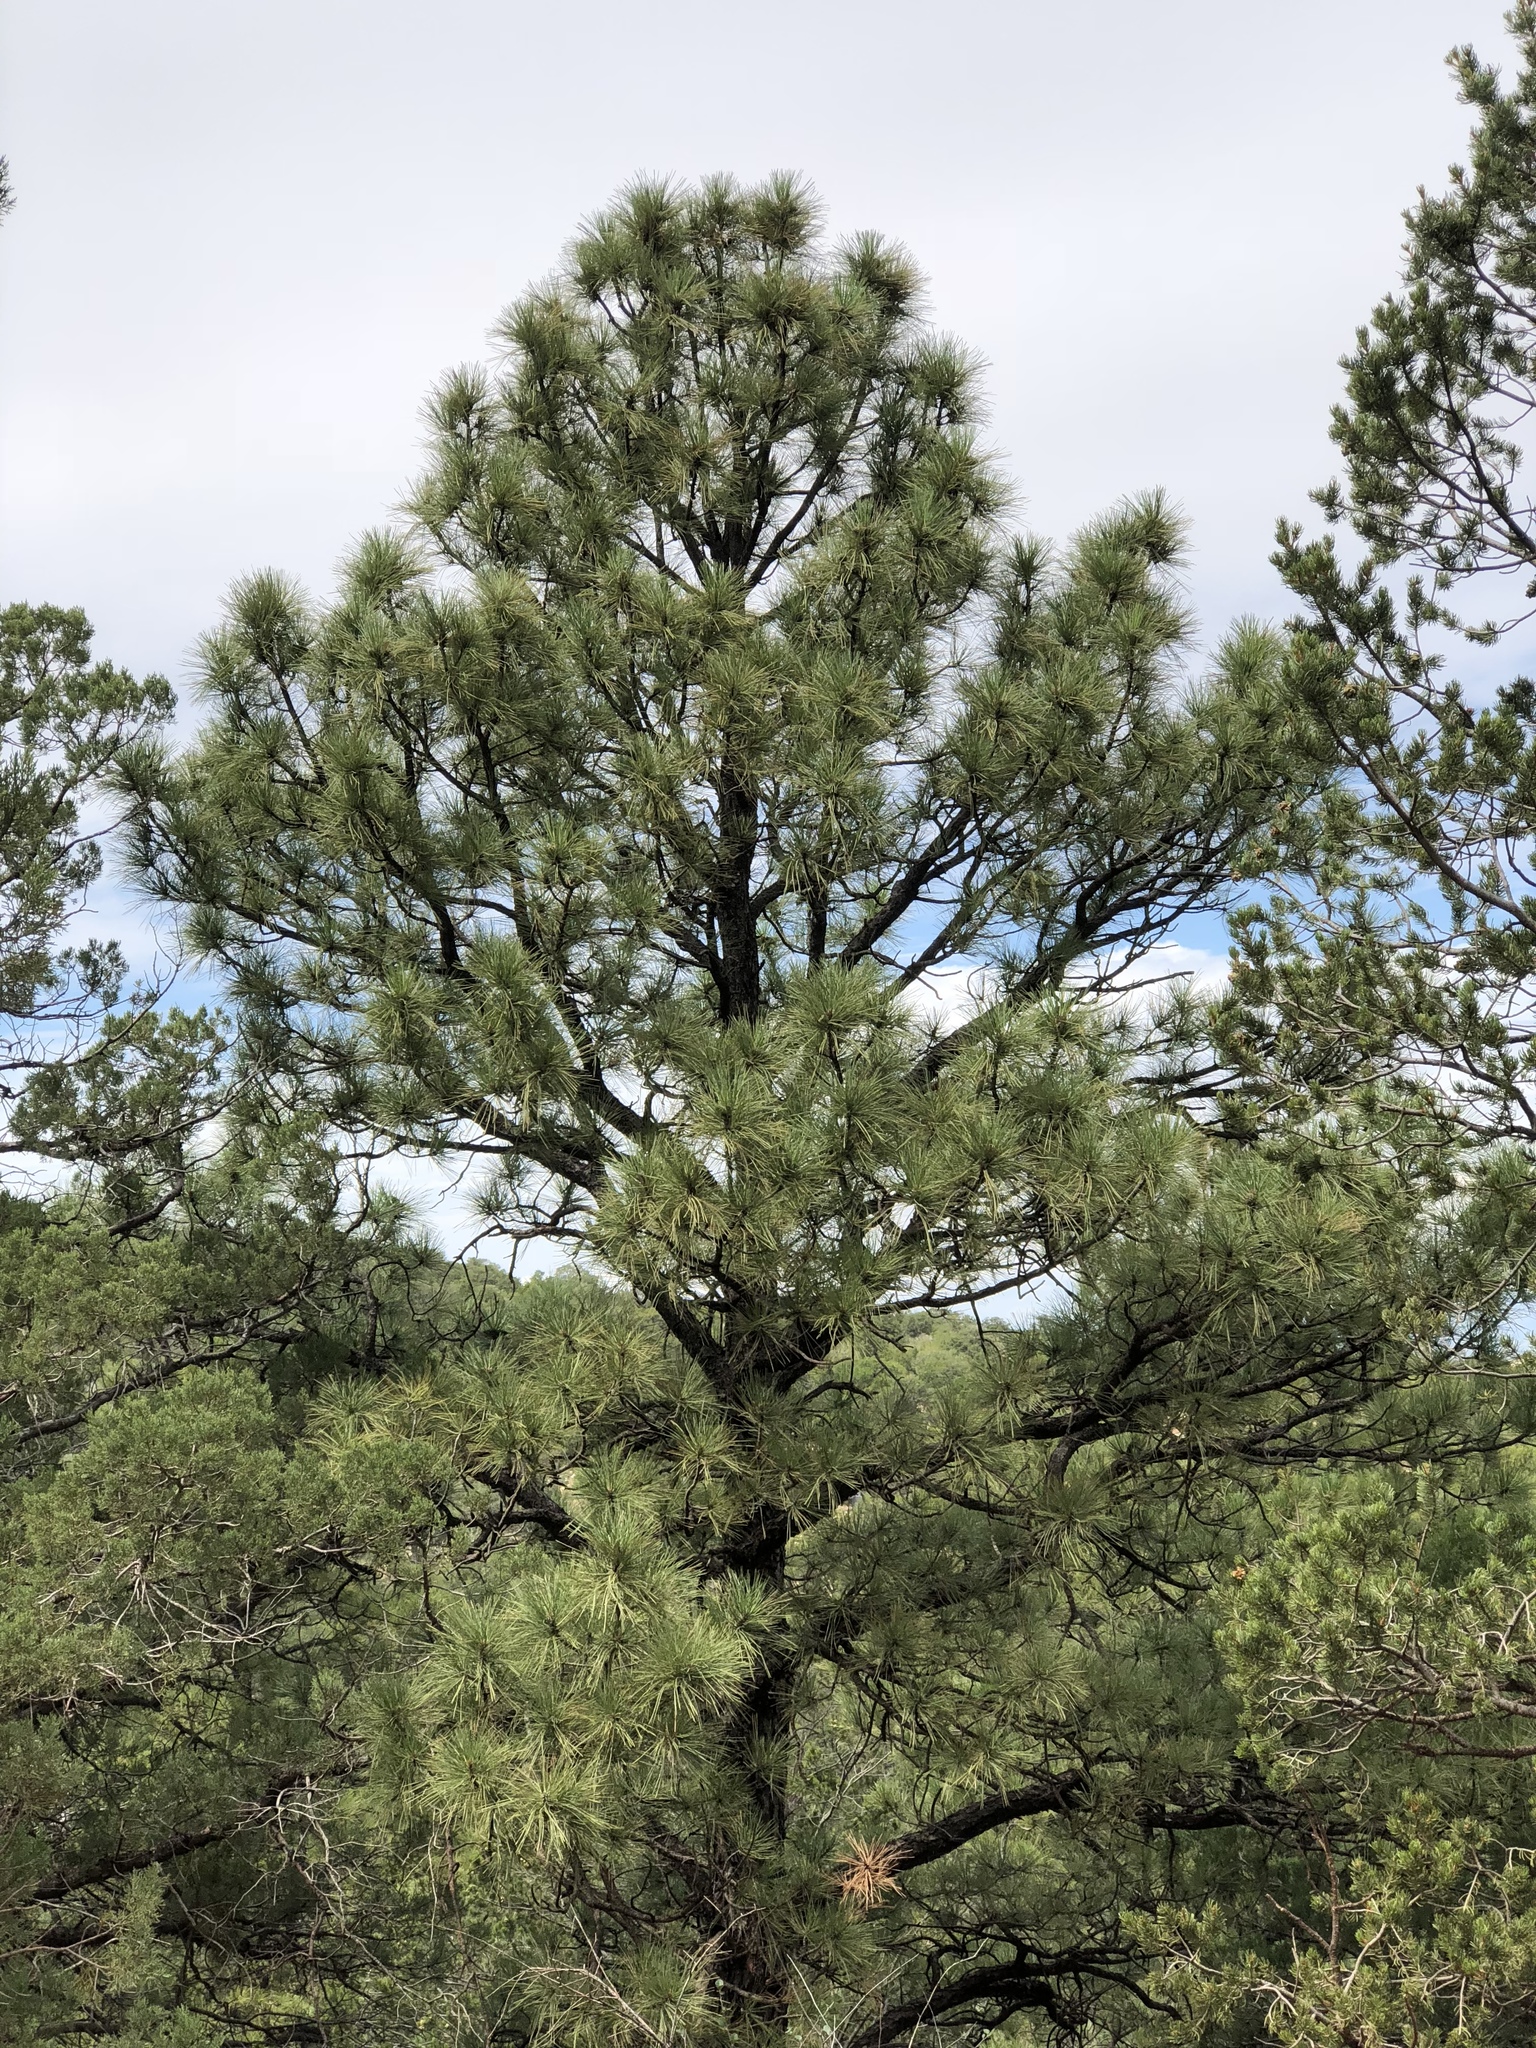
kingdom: Plantae
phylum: Tracheophyta
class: Pinopsida
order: Pinales
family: Pinaceae
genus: Pinus
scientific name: Pinus ponderosa
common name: Western yellow-pine
